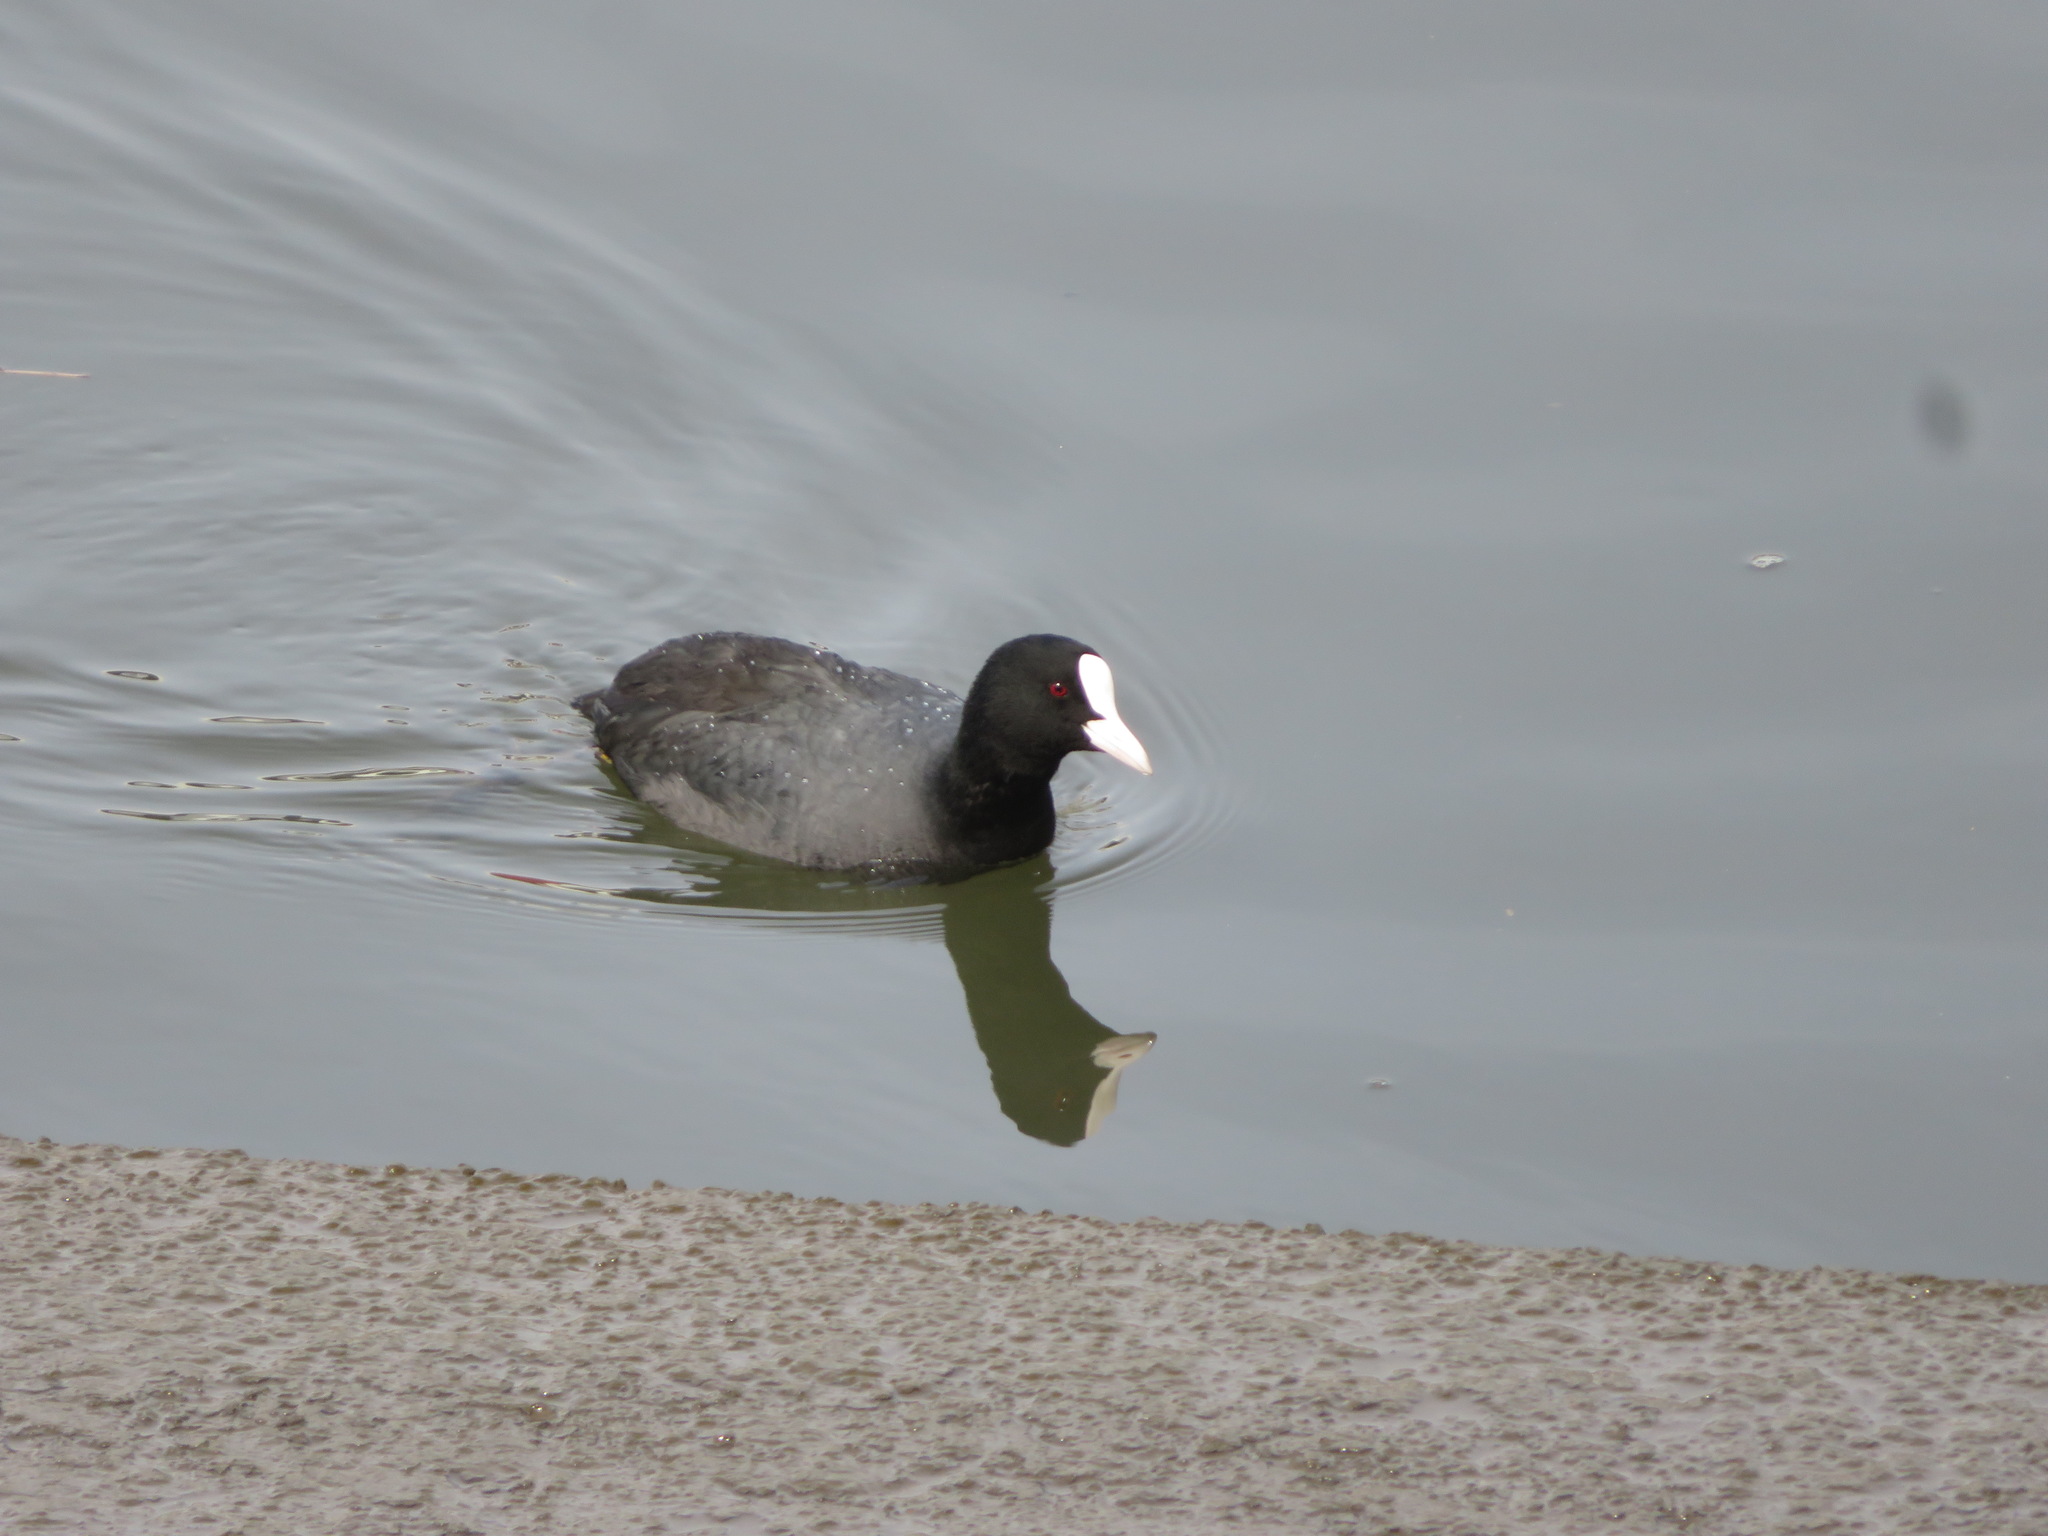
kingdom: Animalia
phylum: Chordata
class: Aves
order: Gruiformes
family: Rallidae
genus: Fulica
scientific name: Fulica atra
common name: Eurasian coot
